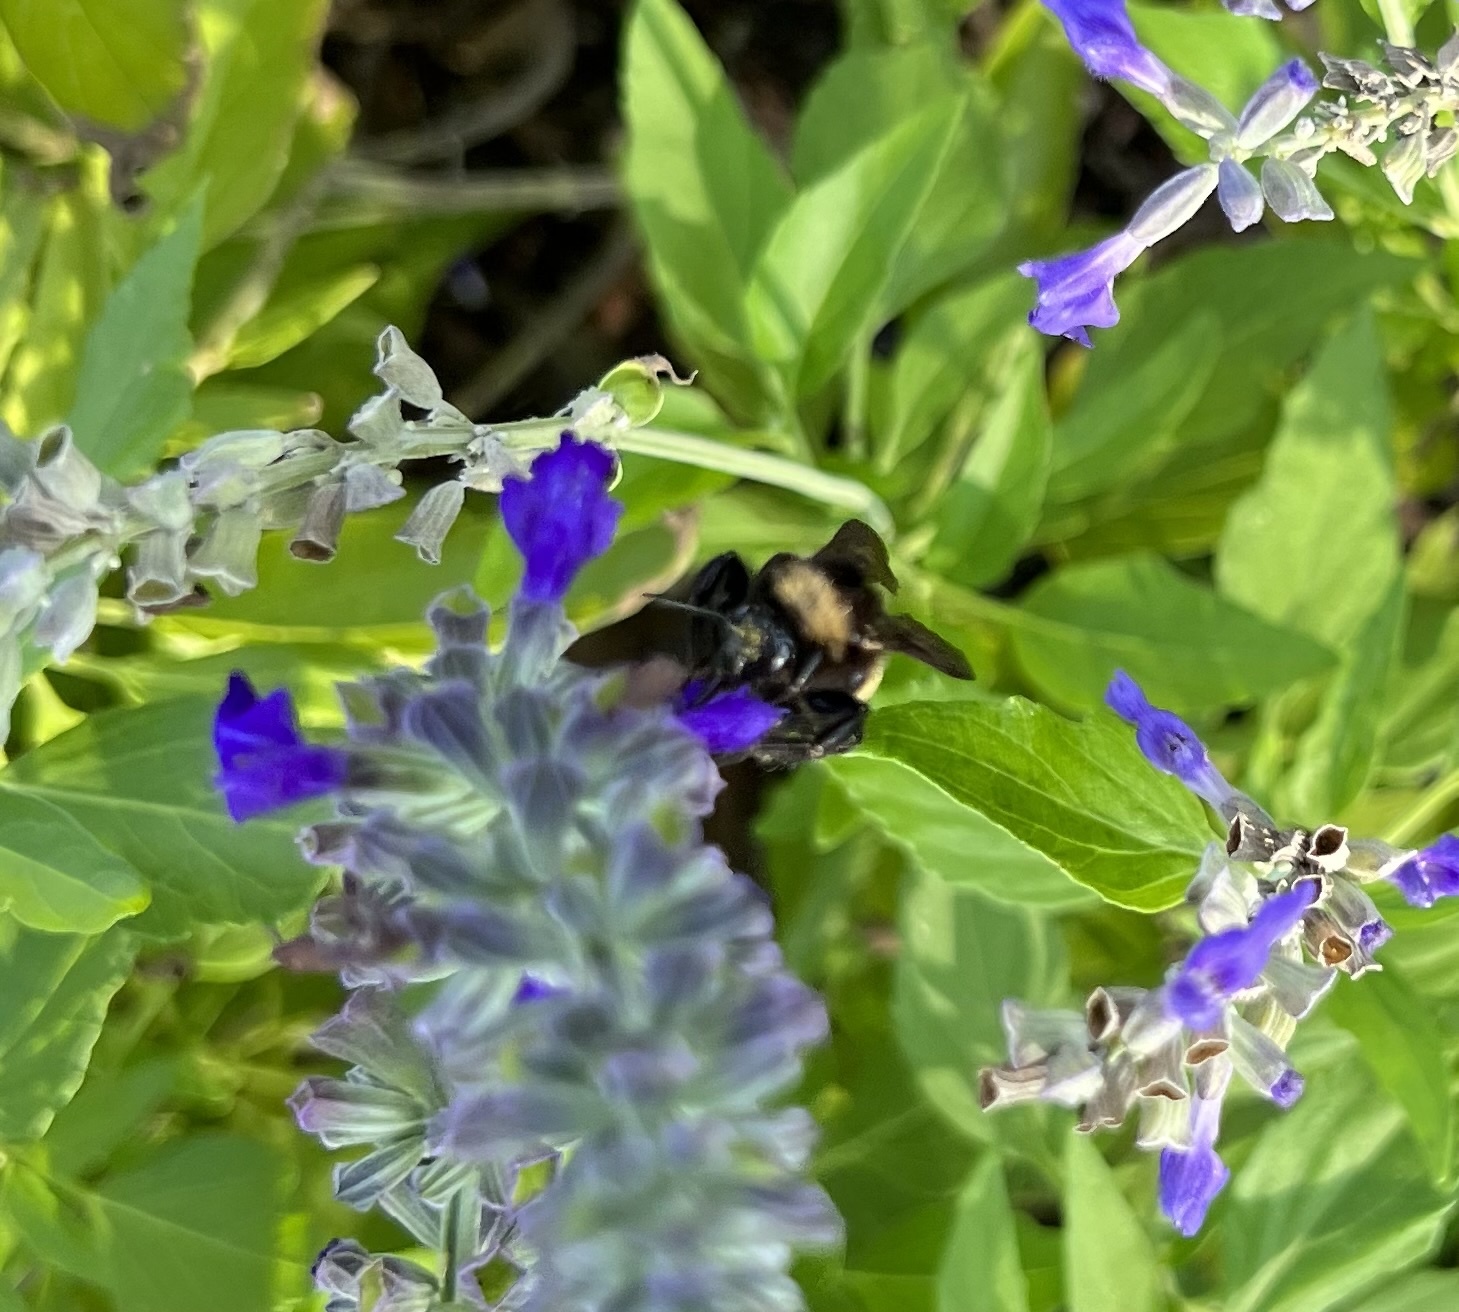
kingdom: Animalia
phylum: Arthropoda
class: Insecta
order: Hymenoptera
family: Apidae
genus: Bombus
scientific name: Bombus pensylvanicus
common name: Bumble bee
